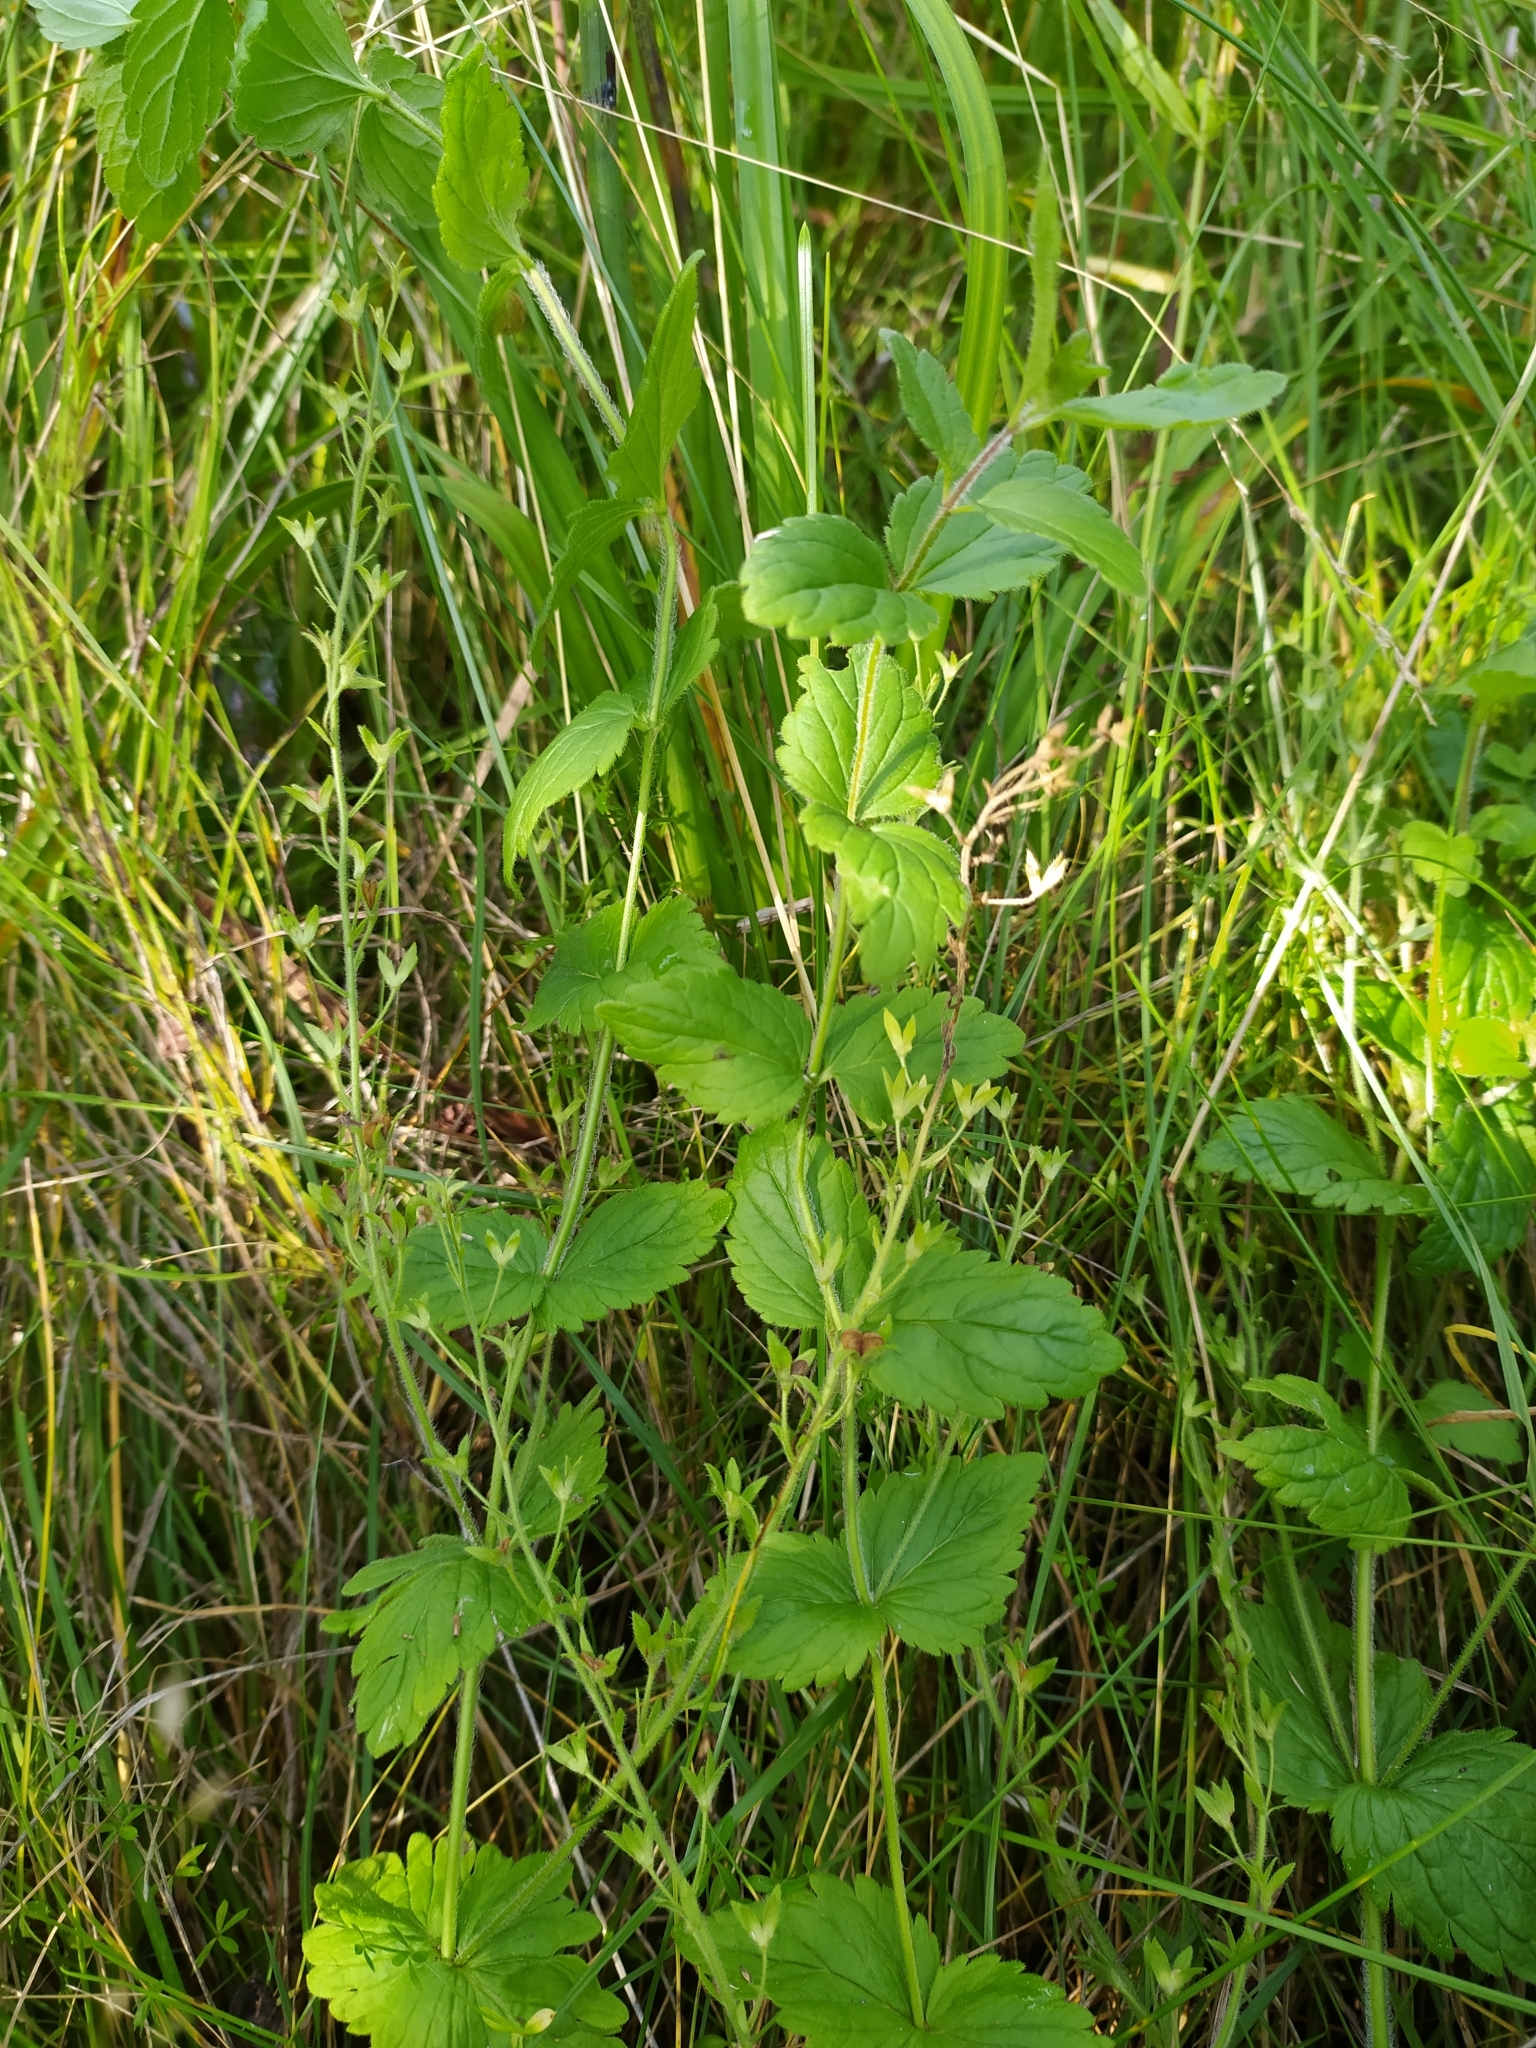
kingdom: Plantae
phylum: Tracheophyta
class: Magnoliopsida
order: Lamiales
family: Plantaginaceae
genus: Veronica
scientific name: Veronica chamaedrys
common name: Germander speedwell
